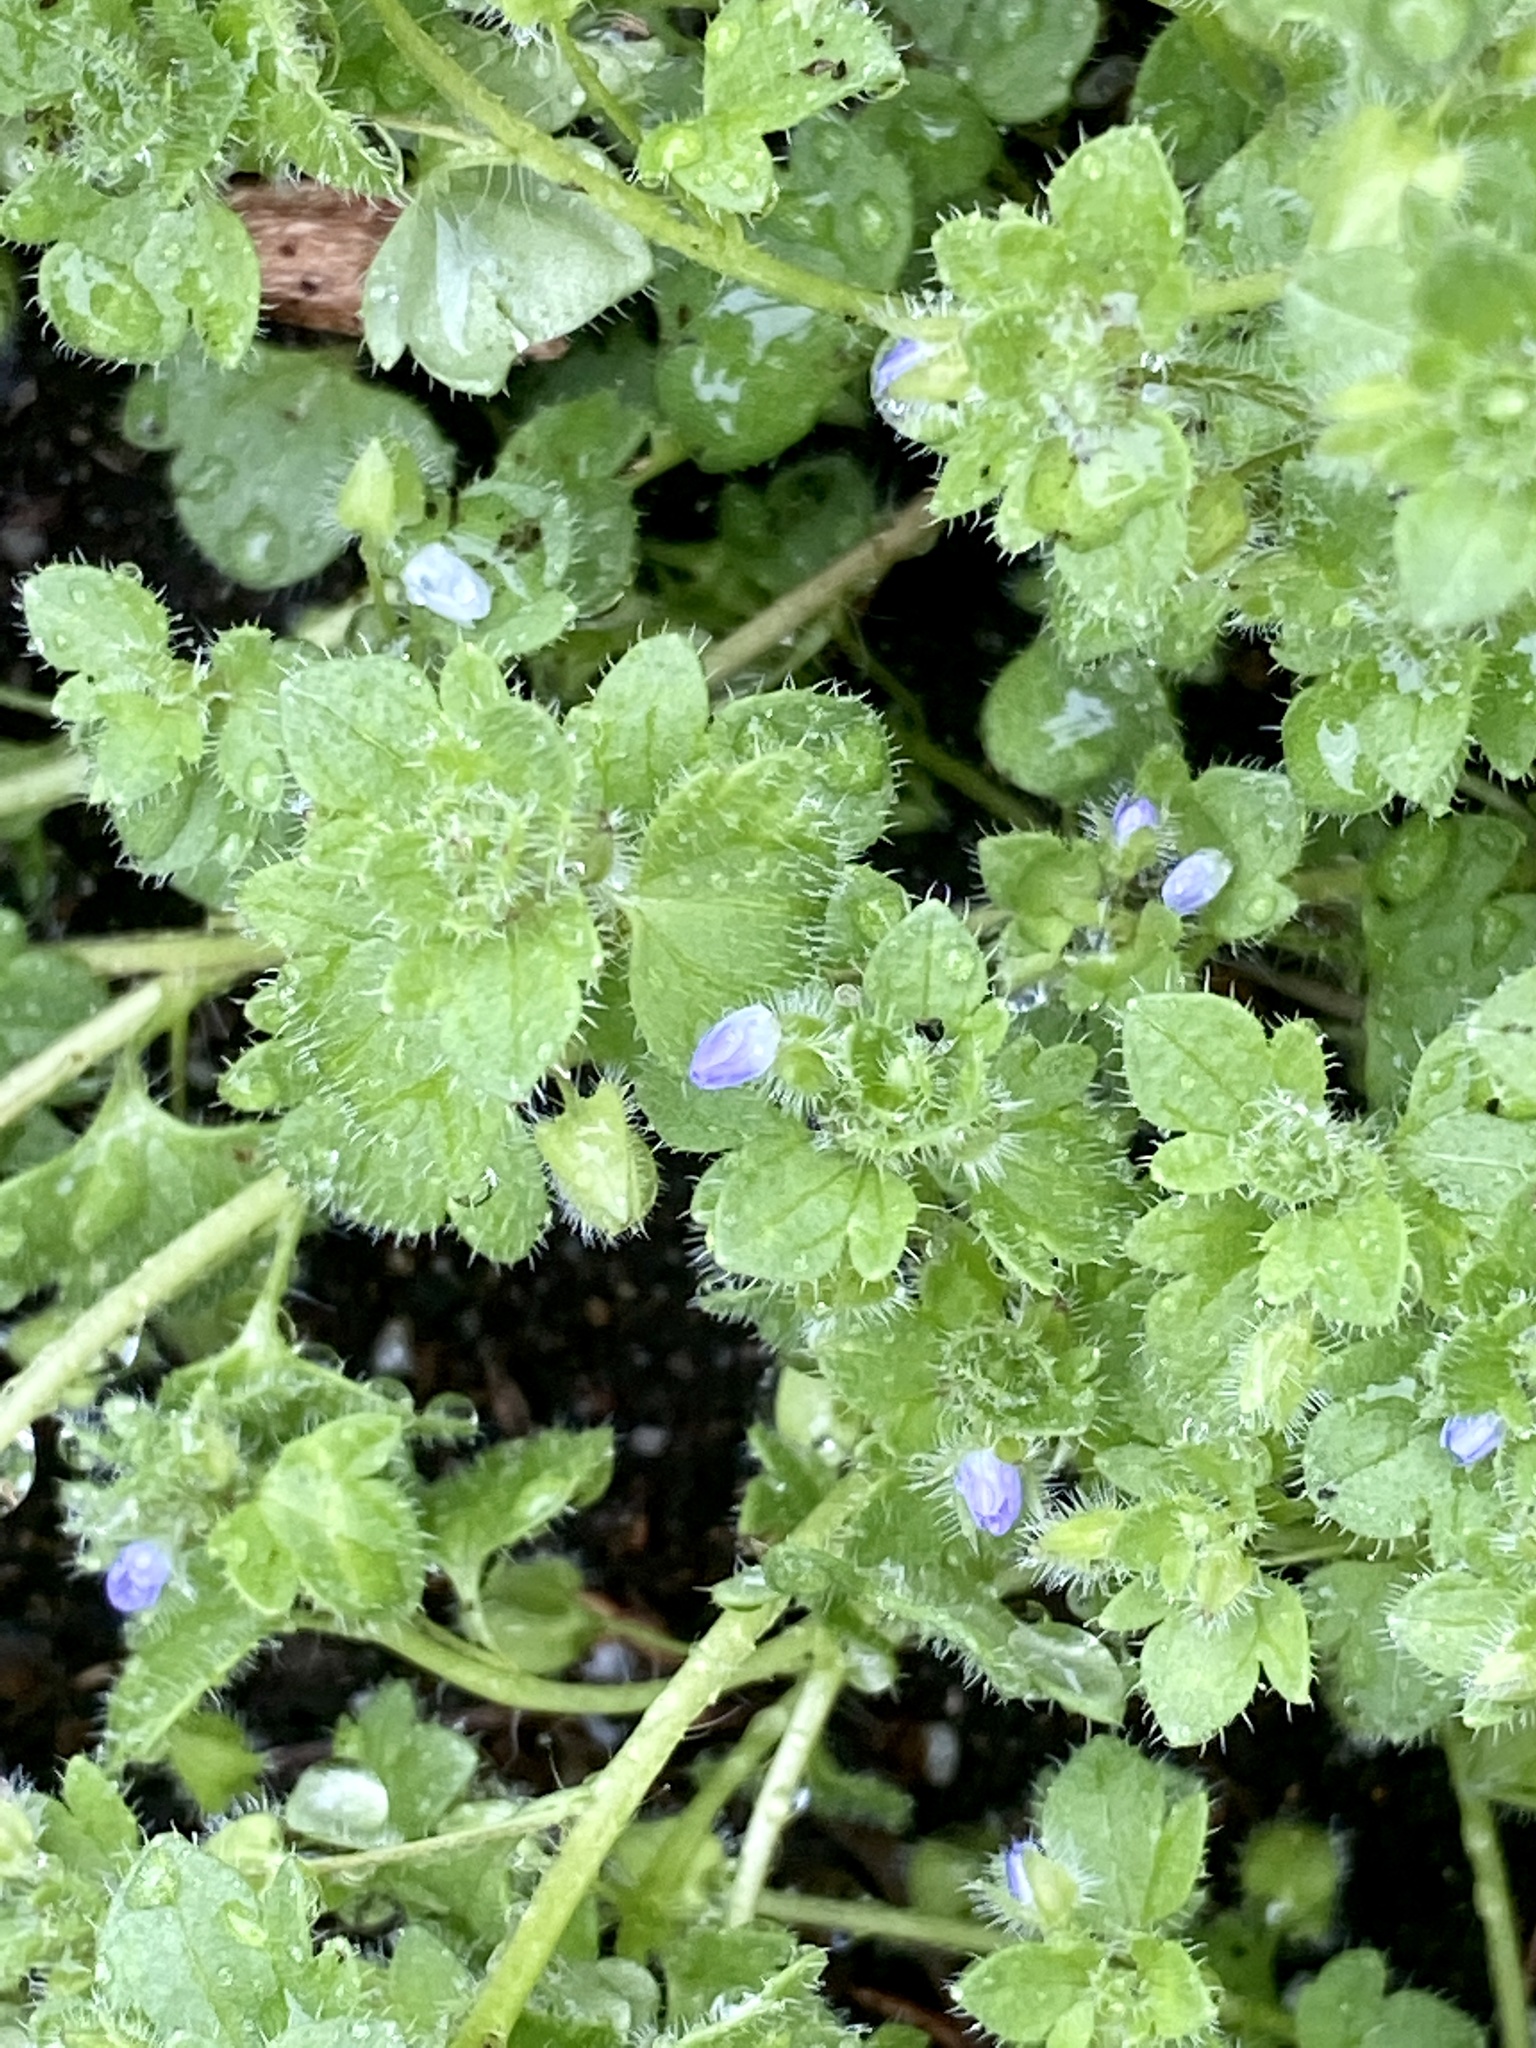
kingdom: Plantae
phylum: Tracheophyta
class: Magnoliopsida
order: Lamiales
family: Plantaginaceae
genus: Veronica
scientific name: Veronica hederifolia
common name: Ivy-leaved speedwell
